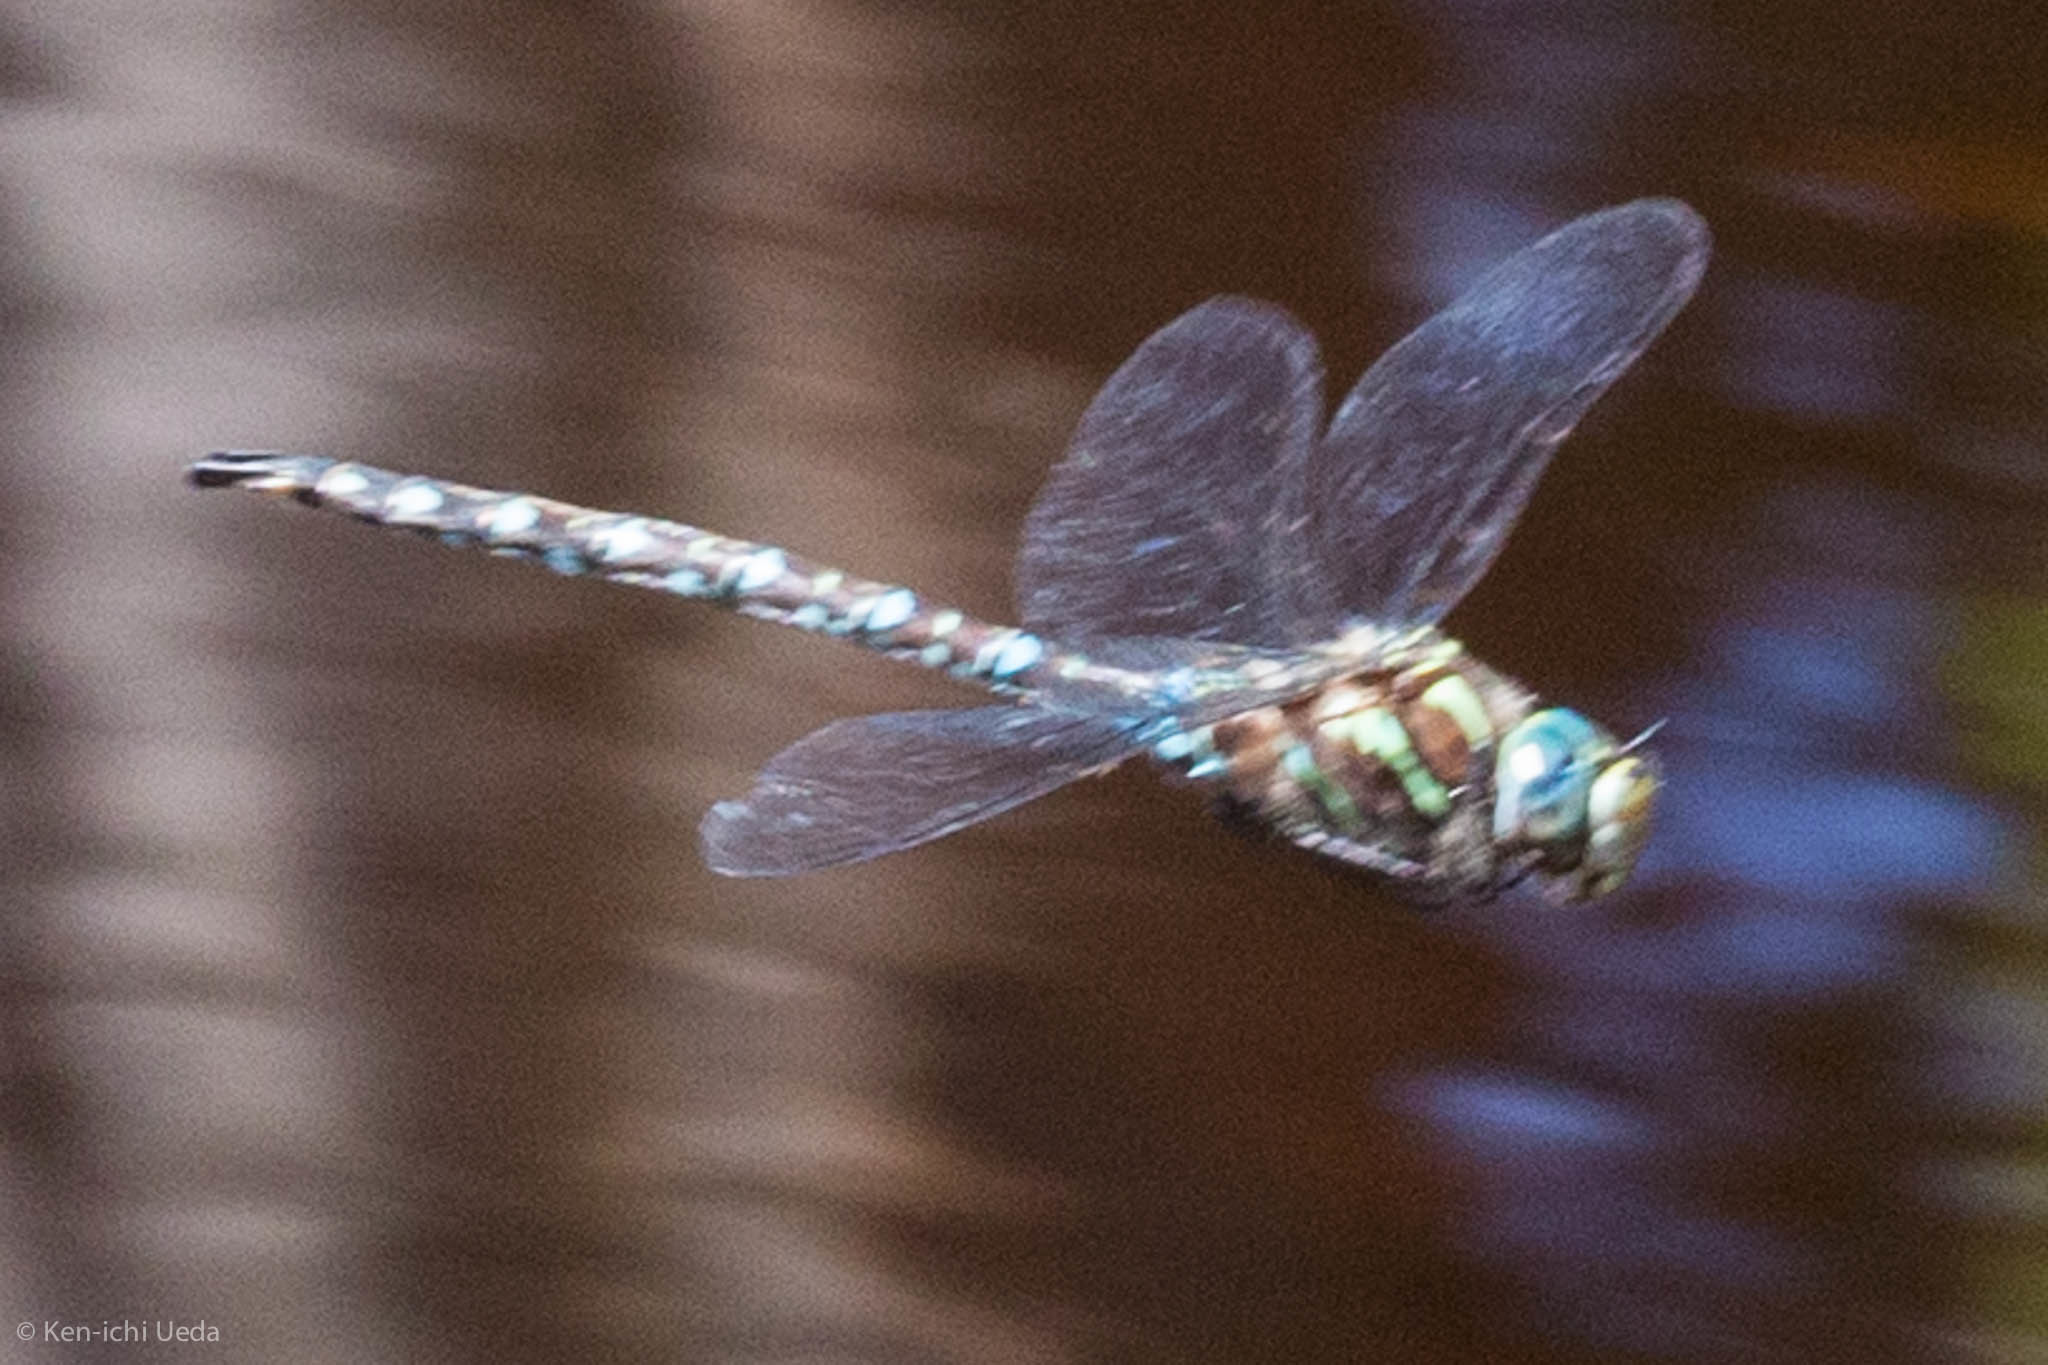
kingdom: Animalia
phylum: Arthropoda
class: Insecta
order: Odonata
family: Aeshnidae
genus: Aeshna
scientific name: Aeshna umbrosa
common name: Shadow darner
